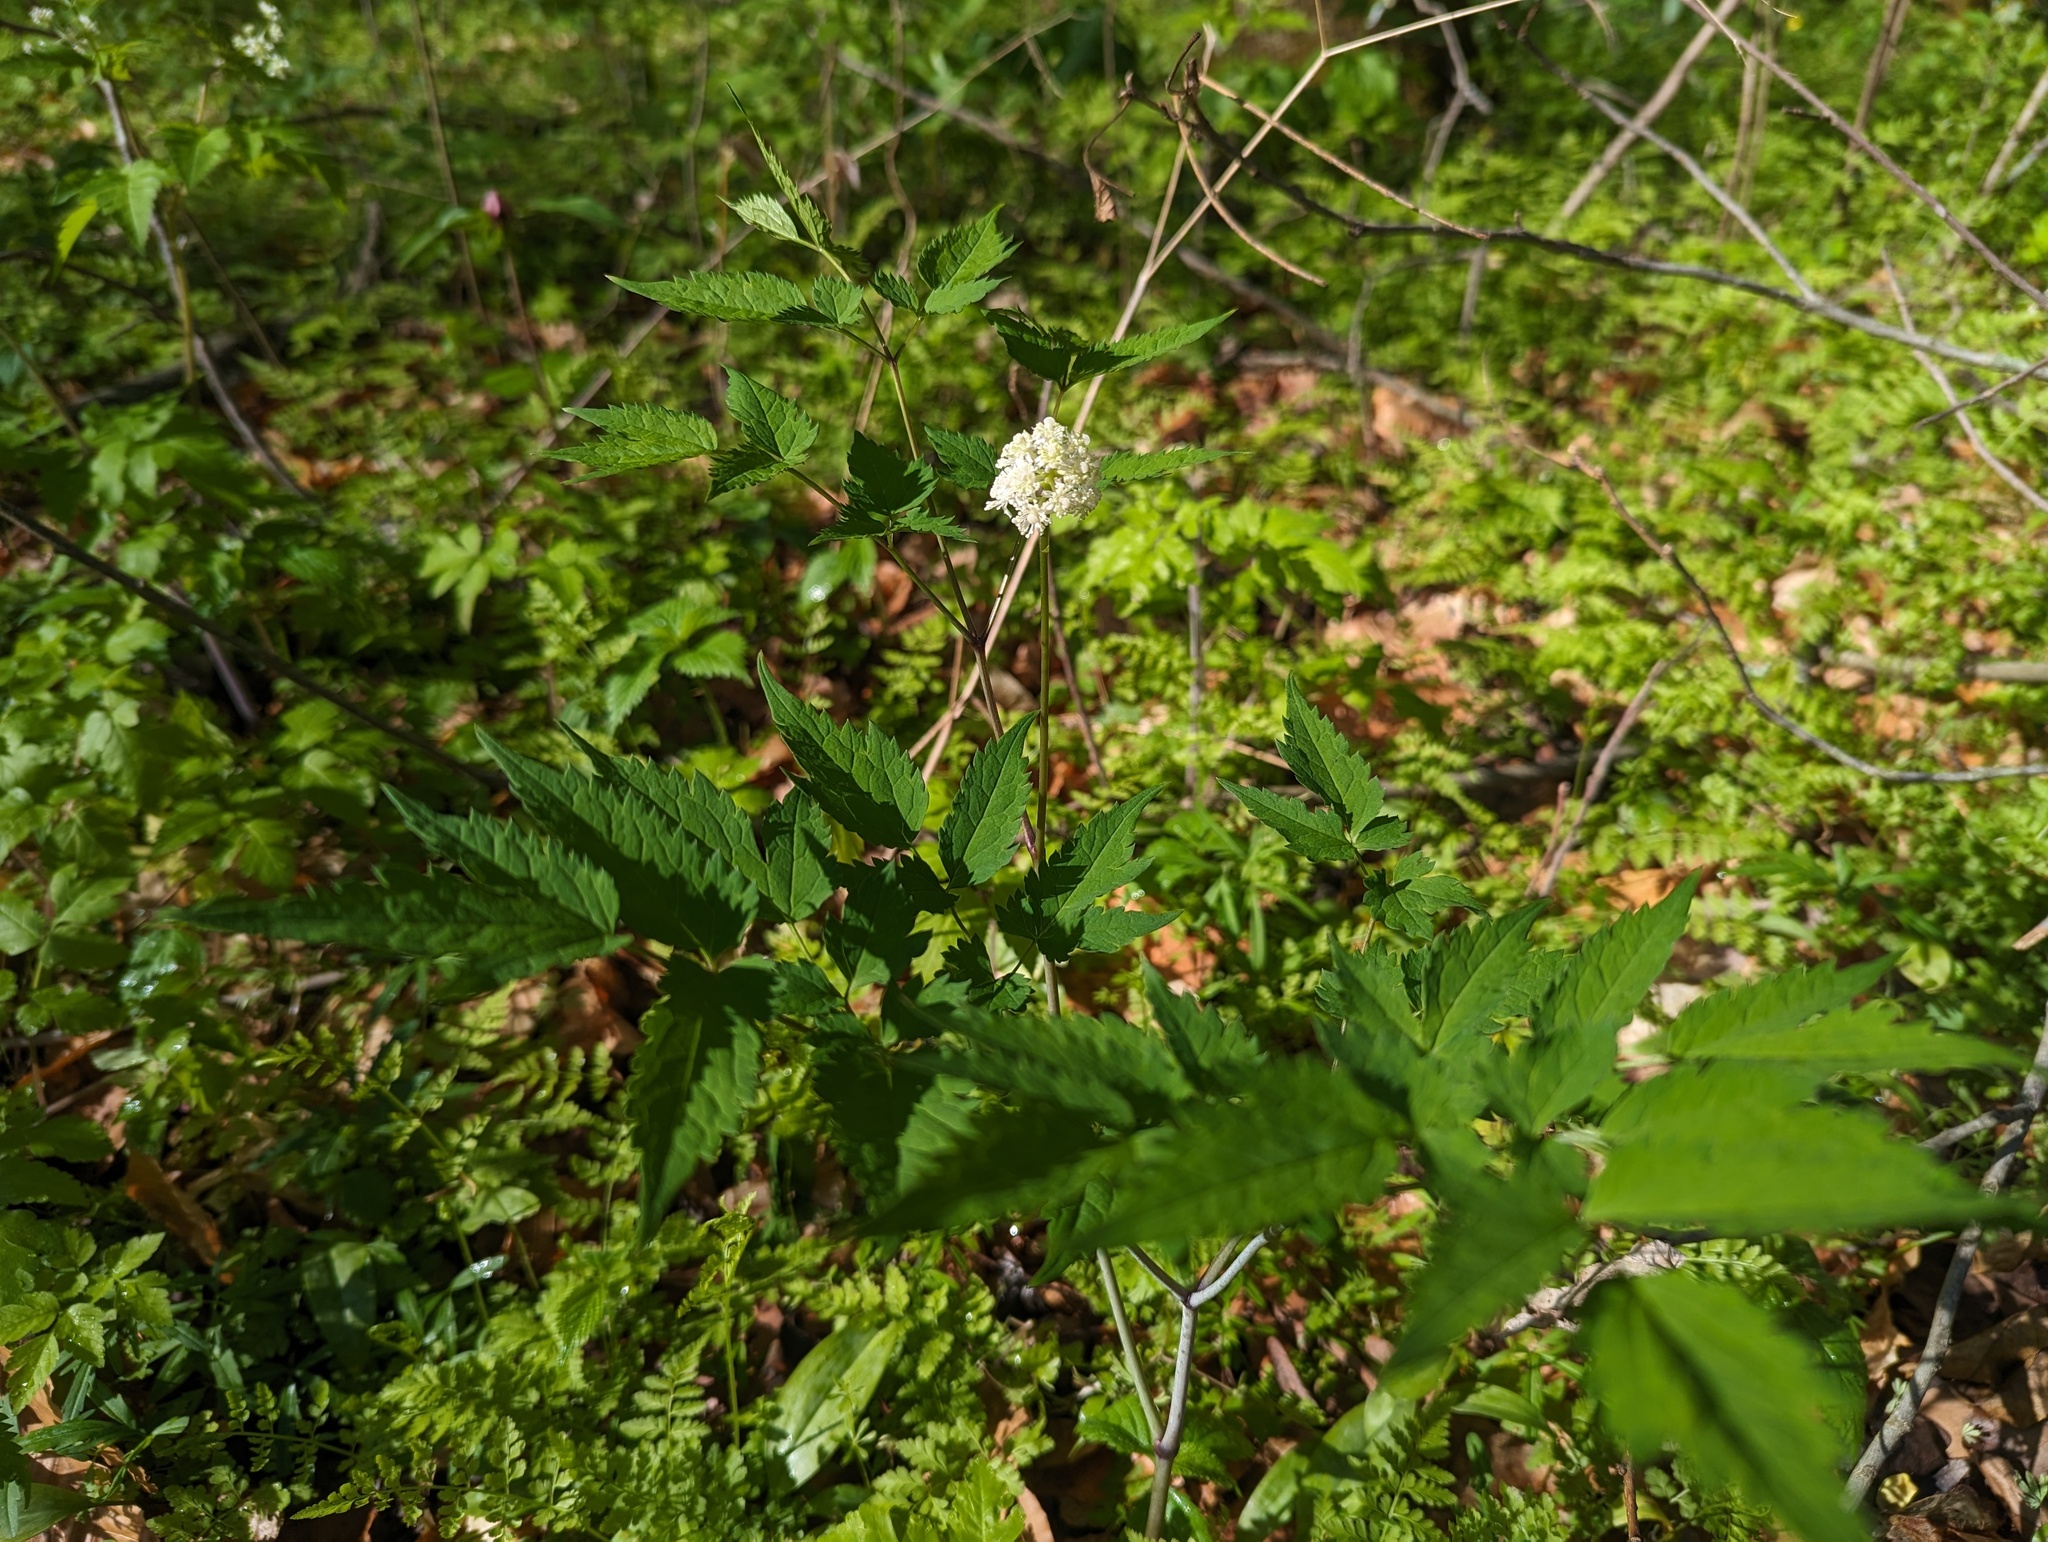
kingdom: Plantae
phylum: Tracheophyta
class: Magnoliopsida
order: Ranunculales
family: Ranunculaceae
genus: Actaea
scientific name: Actaea pachypoda
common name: Doll's-eyes
